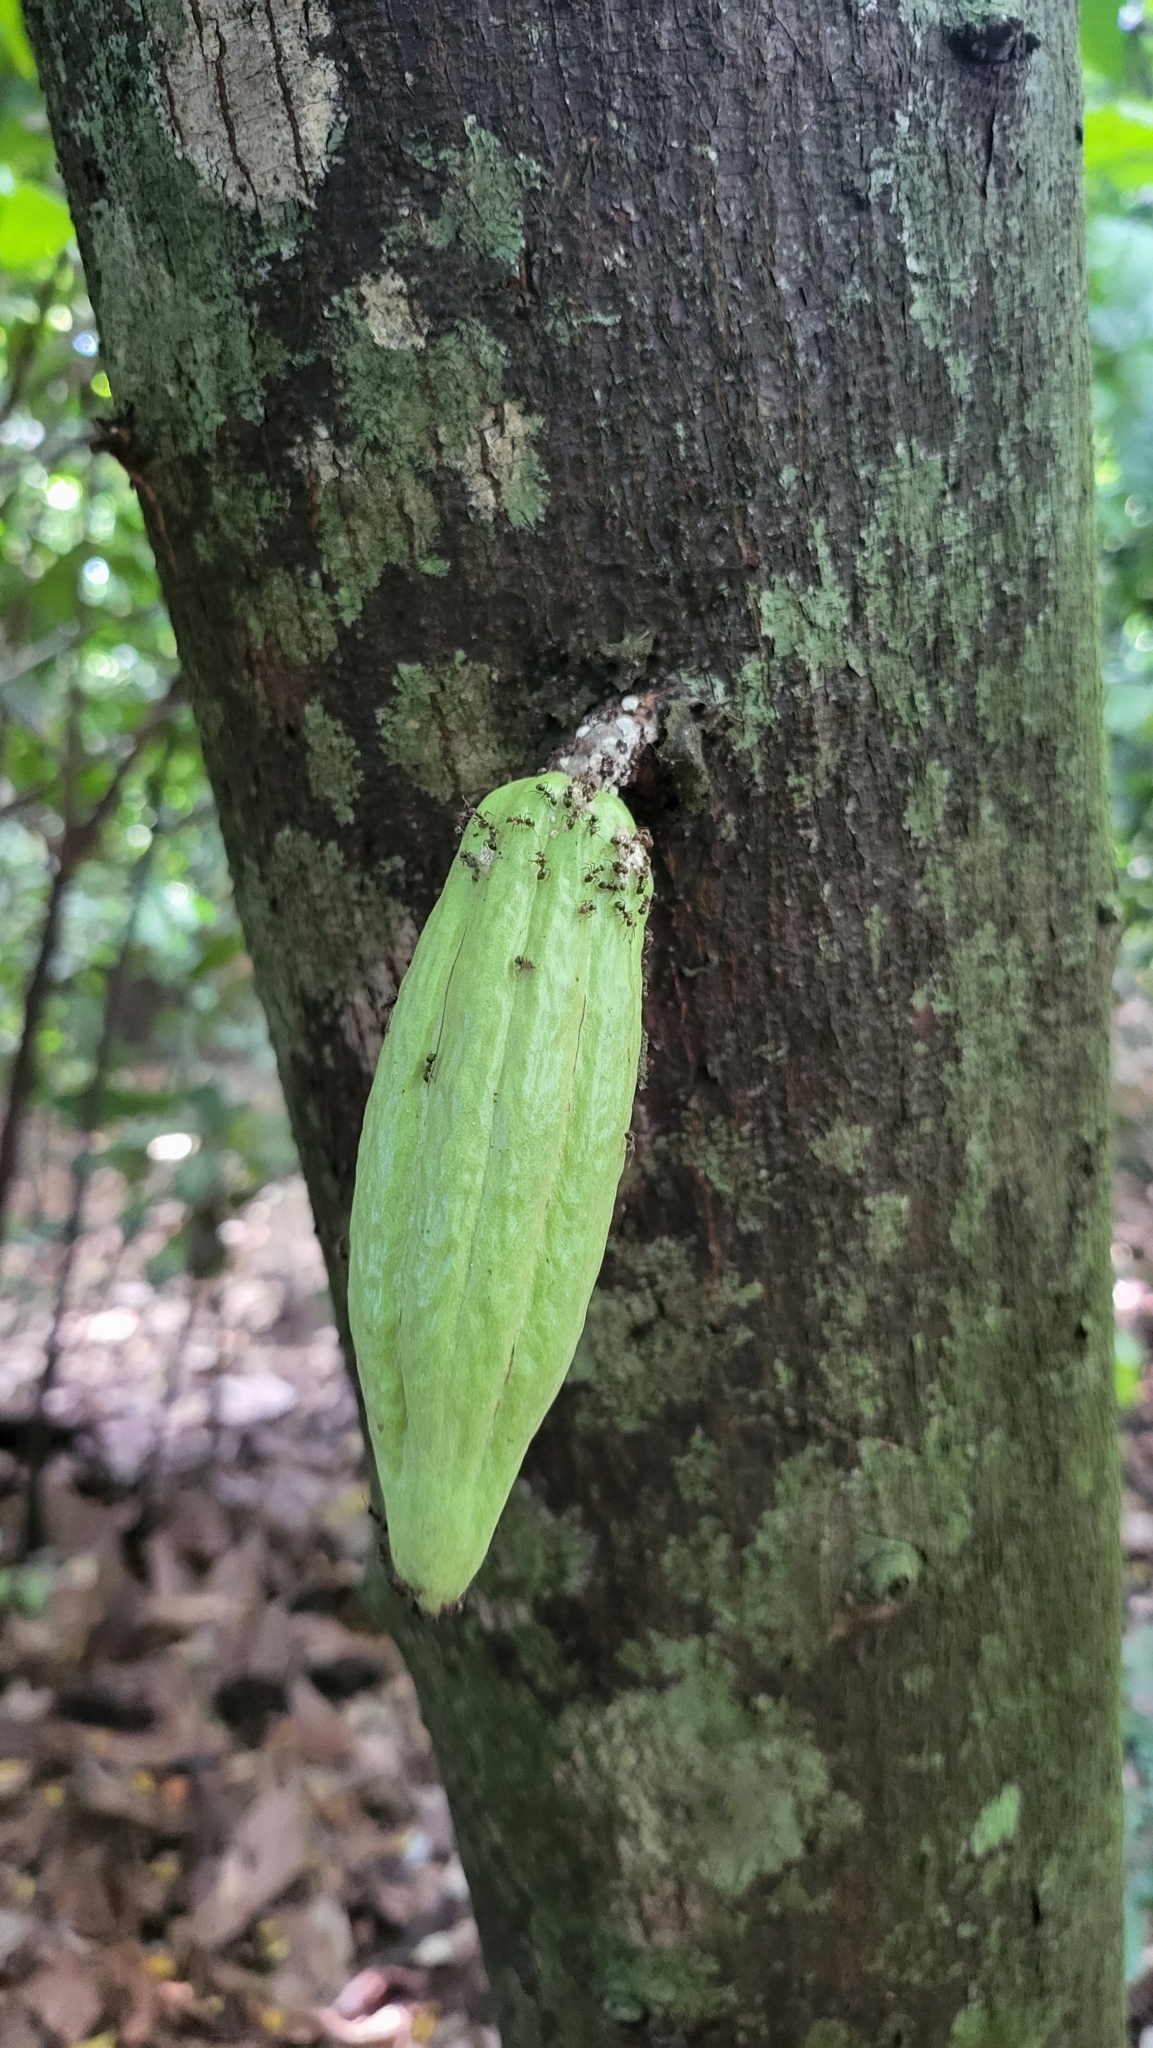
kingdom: Plantae
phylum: Tracheophyta
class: Magnoliopsida
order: Malvales
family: Malvaceae
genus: Theobroma
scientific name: Theobroma cacao
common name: Cocoa
